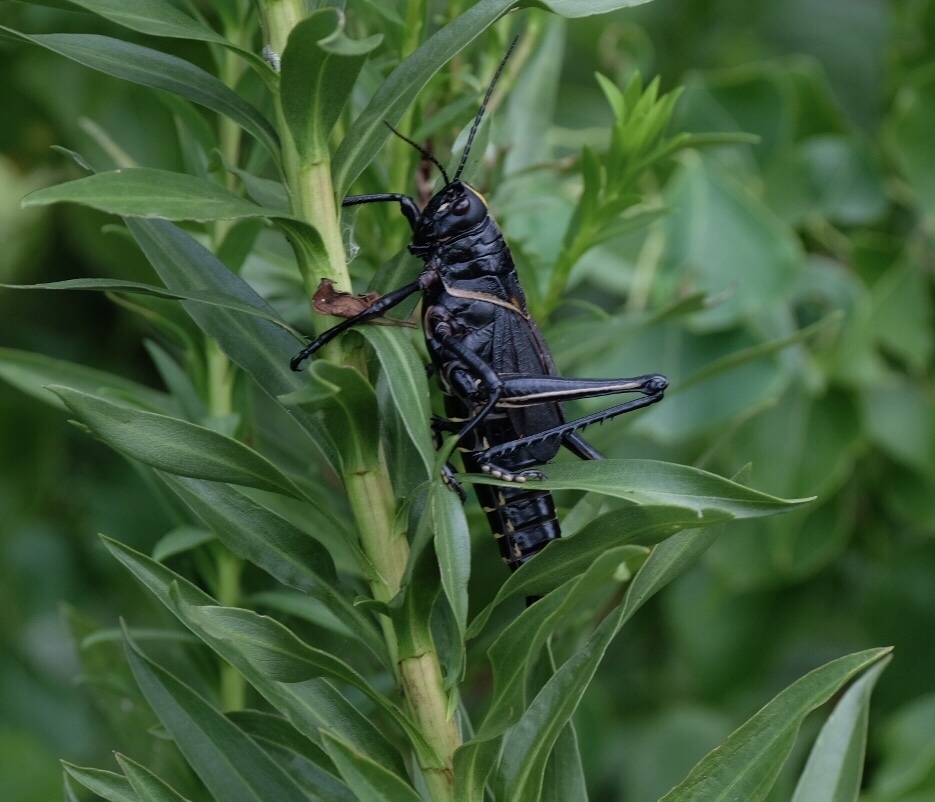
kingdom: Animalia
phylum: Arthropoda
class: Insecta
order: Orthoptera
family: Romaleidae
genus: Romalea
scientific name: Romalea microptera
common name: Eastern lubber grasshopper
